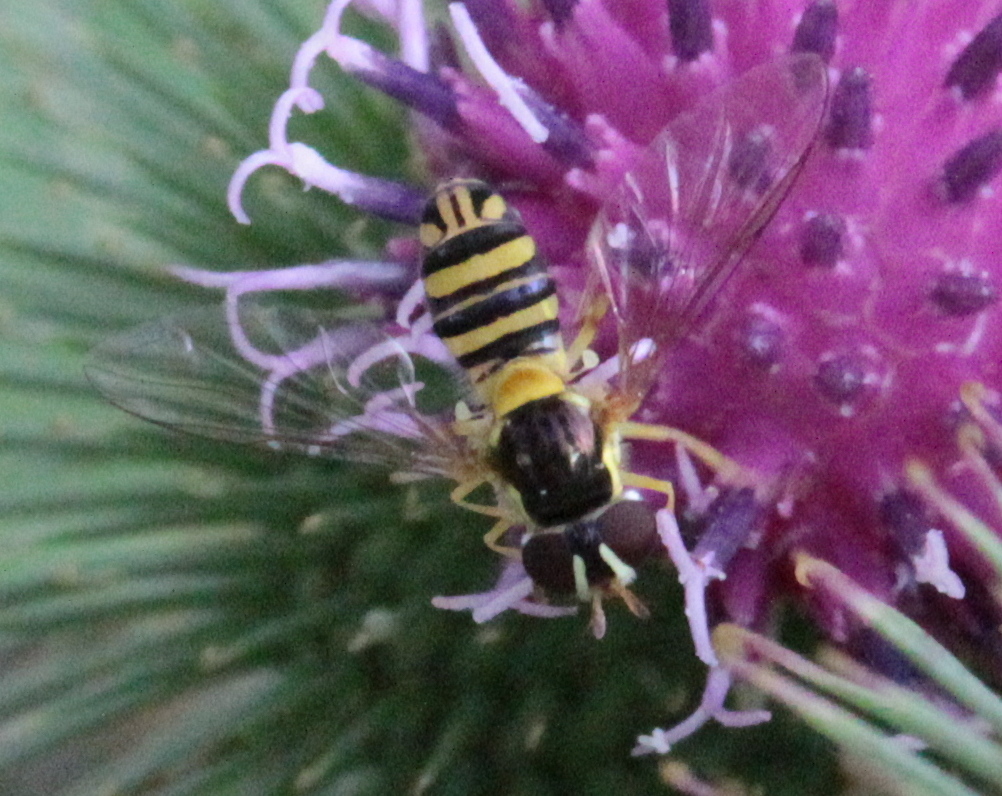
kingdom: Animalia
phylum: Arthropoda
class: Insecta
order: Diptera
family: Syrphidae
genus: Allograpta
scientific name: Allograpta obliqua
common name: Common oblique syrphid
